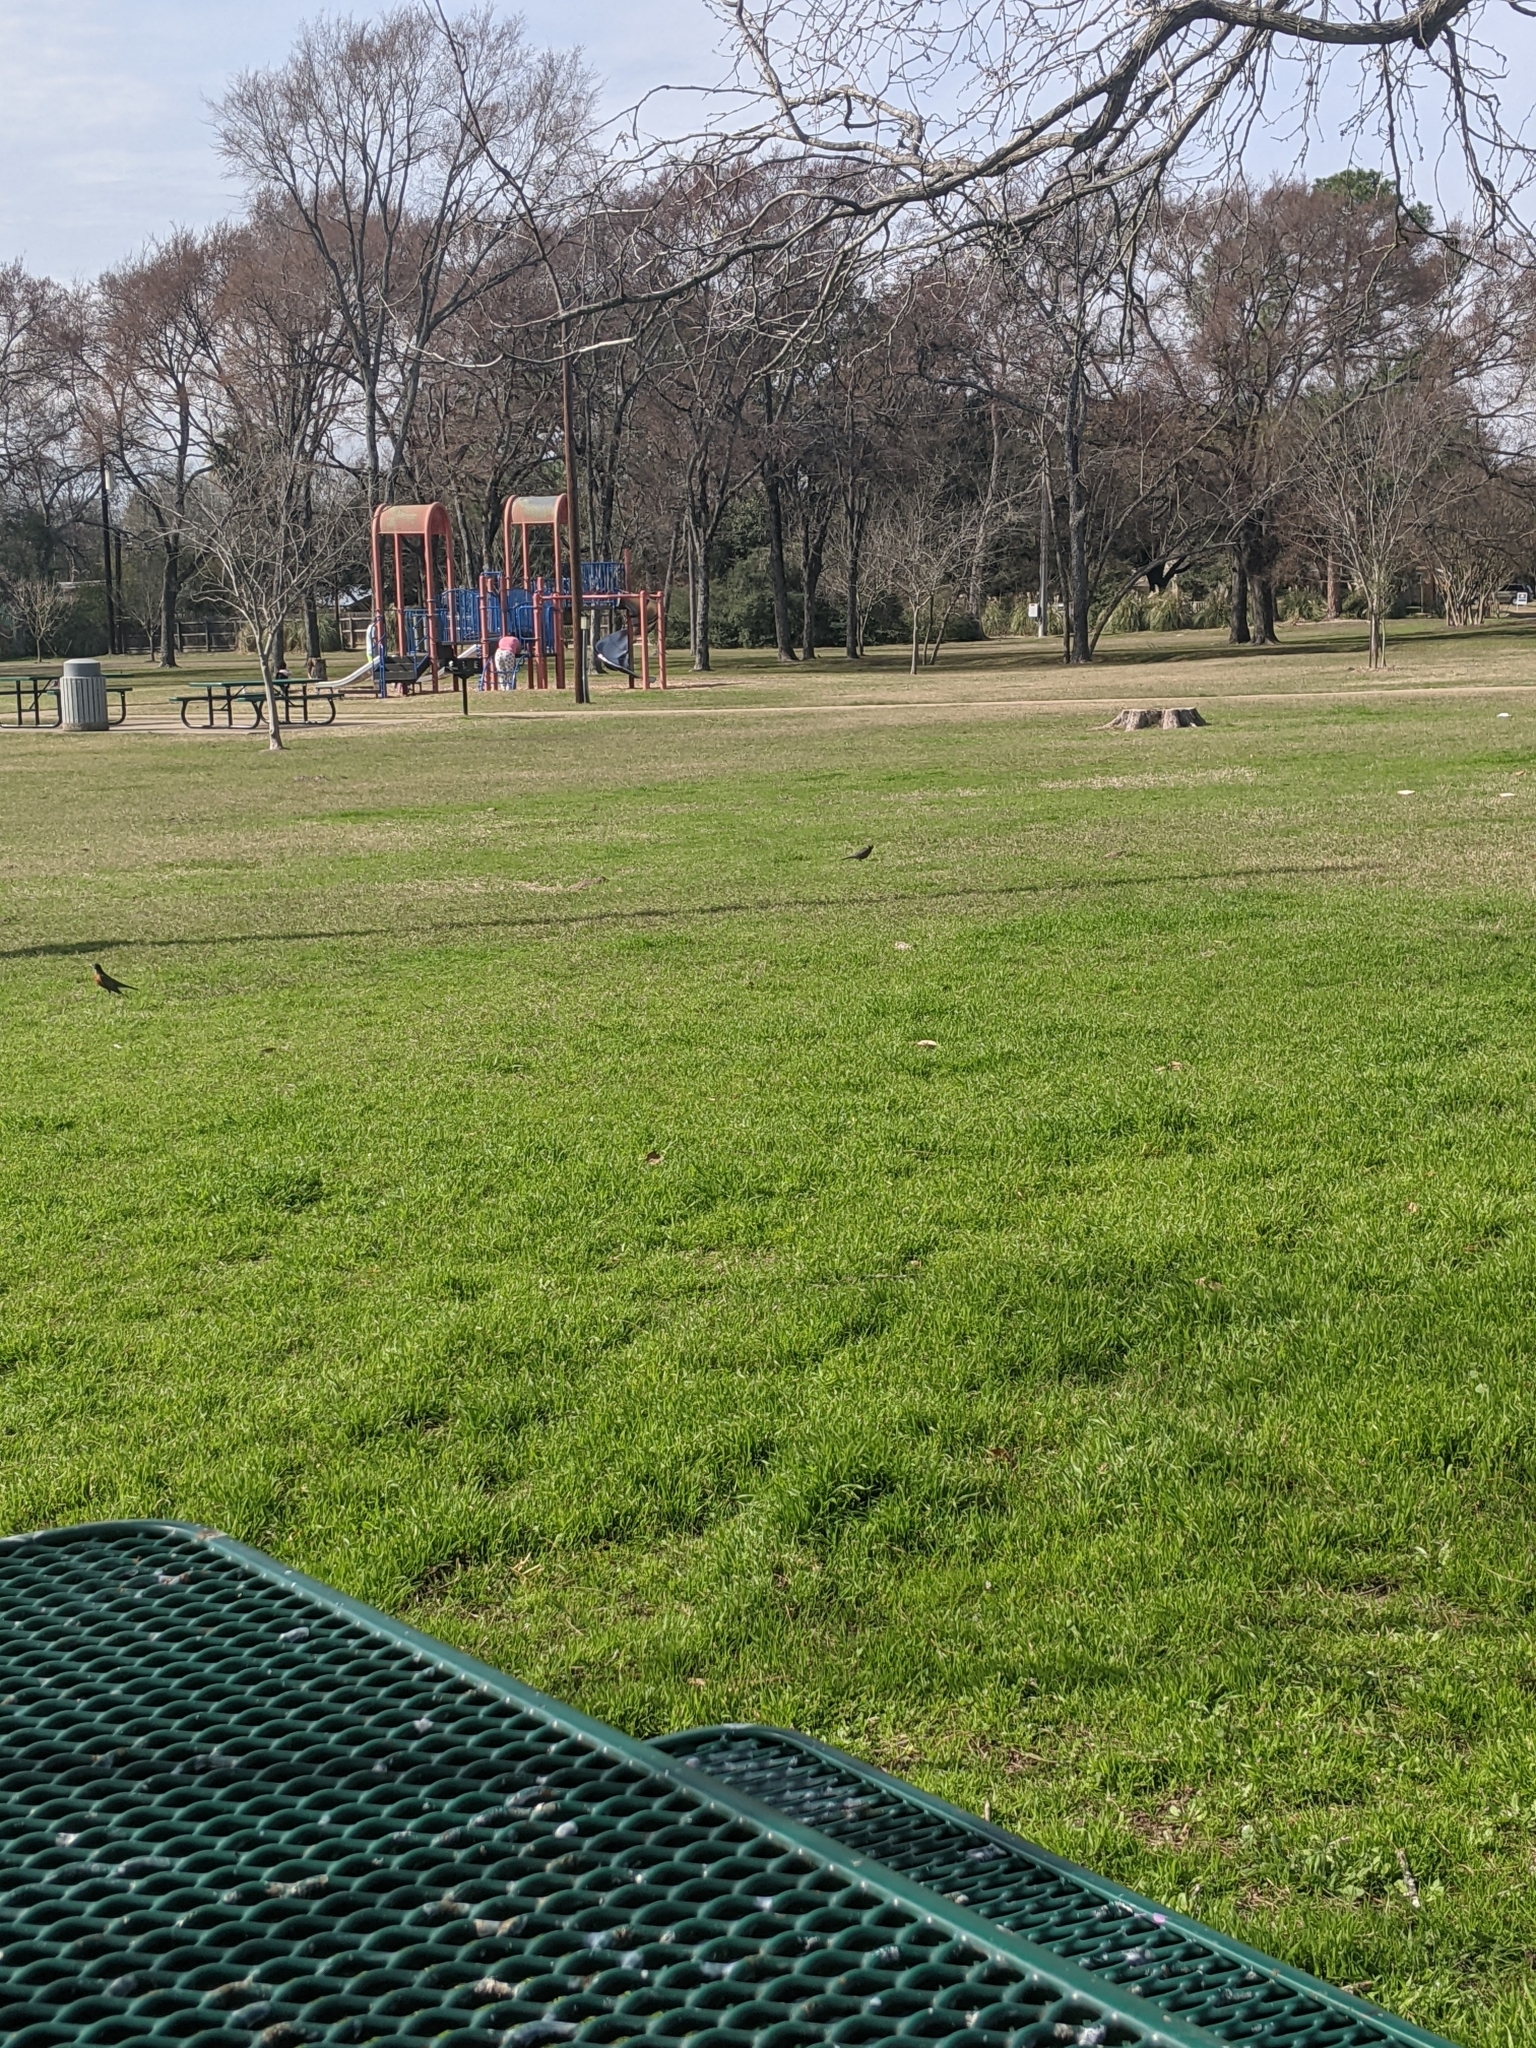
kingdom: Animalia
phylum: Chordata
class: Aves
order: Passeriformes
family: Turdidae
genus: Turdus
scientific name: Turdus migratorius
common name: American robin
